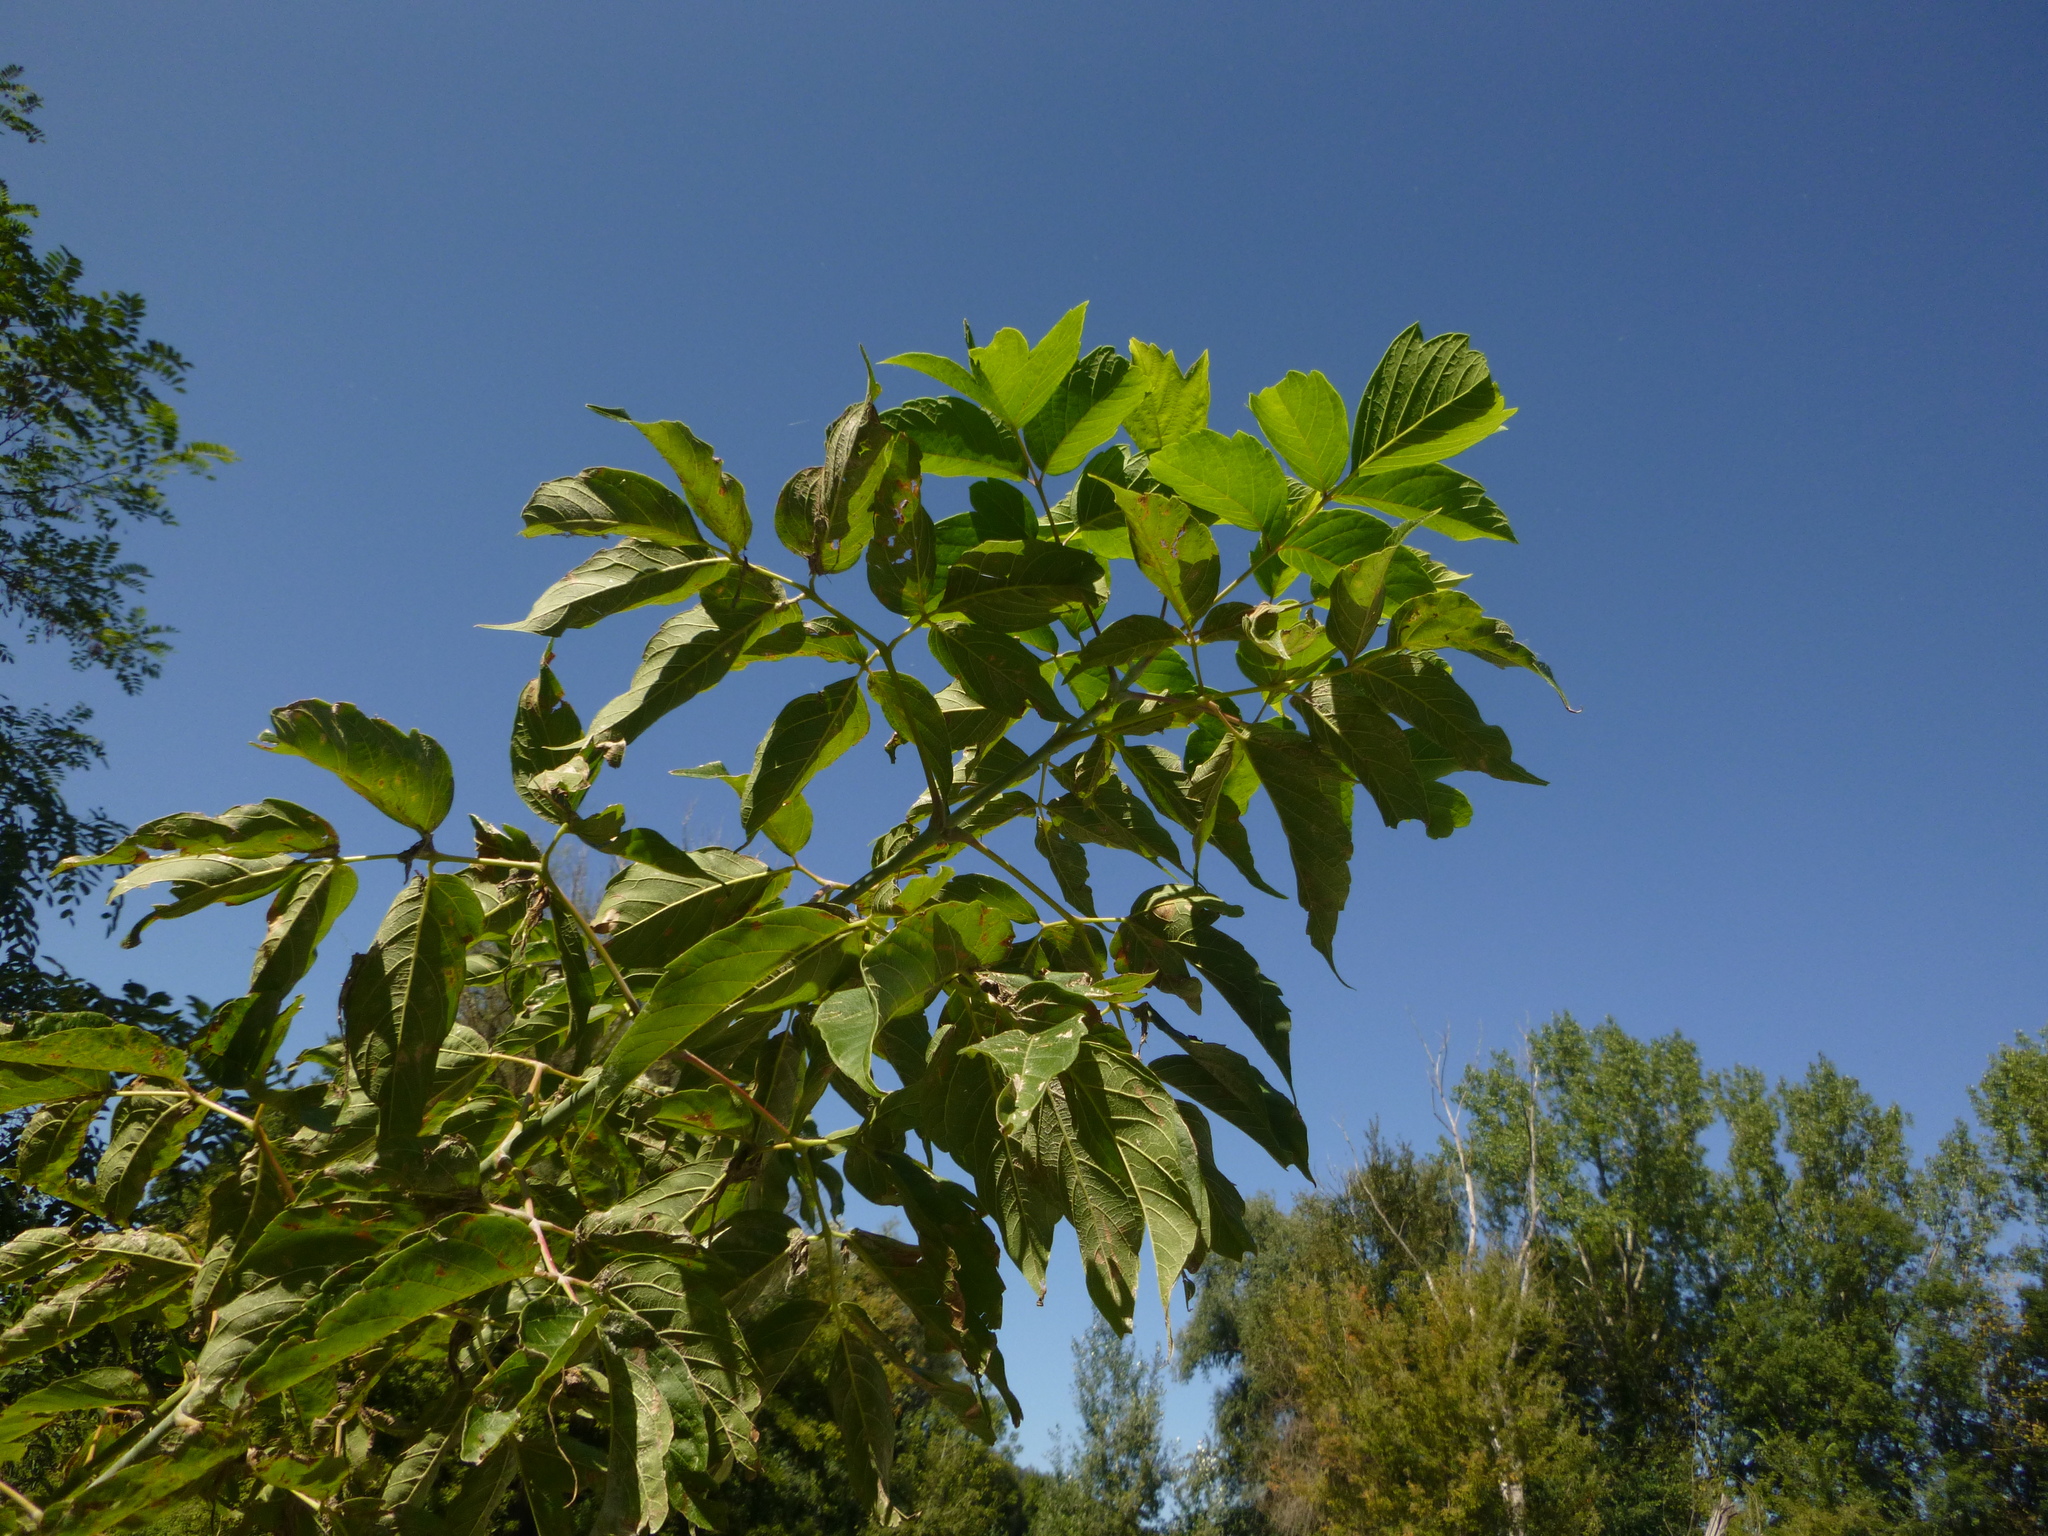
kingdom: Plantae
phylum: Tracheophyta
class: Magnoliopsida
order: Sapindales
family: Sapindaceae
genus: Acer
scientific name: Acer negundo
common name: Ashleaf maple
